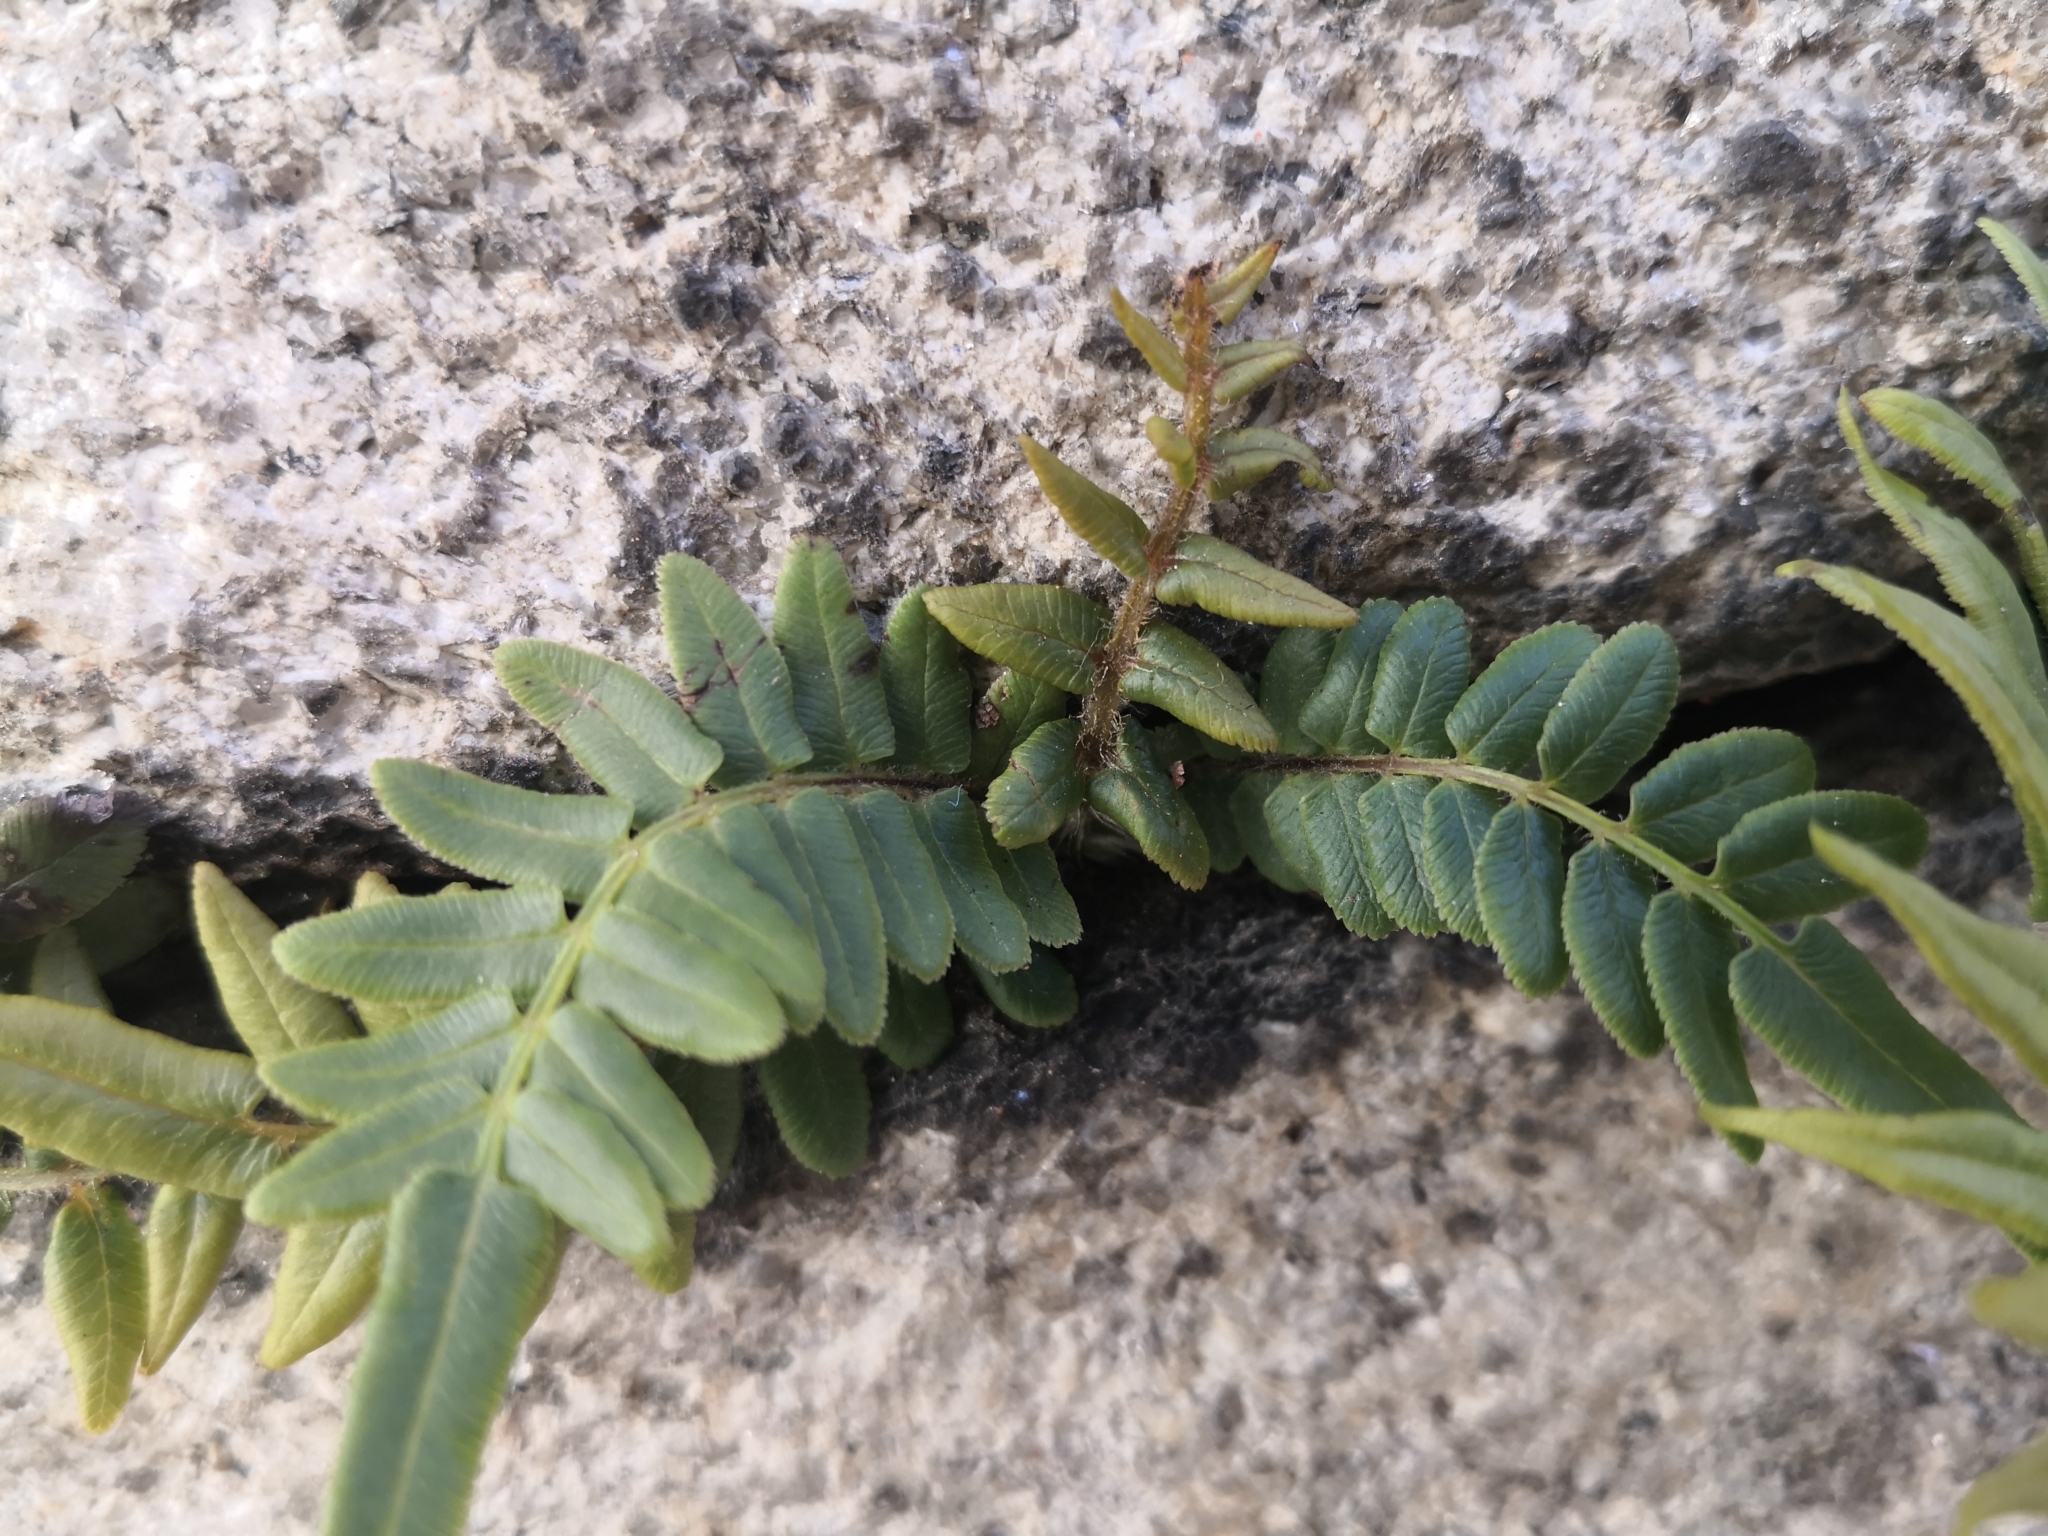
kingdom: Plantae
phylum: Tracheophyta
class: Polypodiopsida
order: Polypodiales
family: Pteridaceae
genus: Pteris
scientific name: Pteris vittata
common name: Ladder brake
